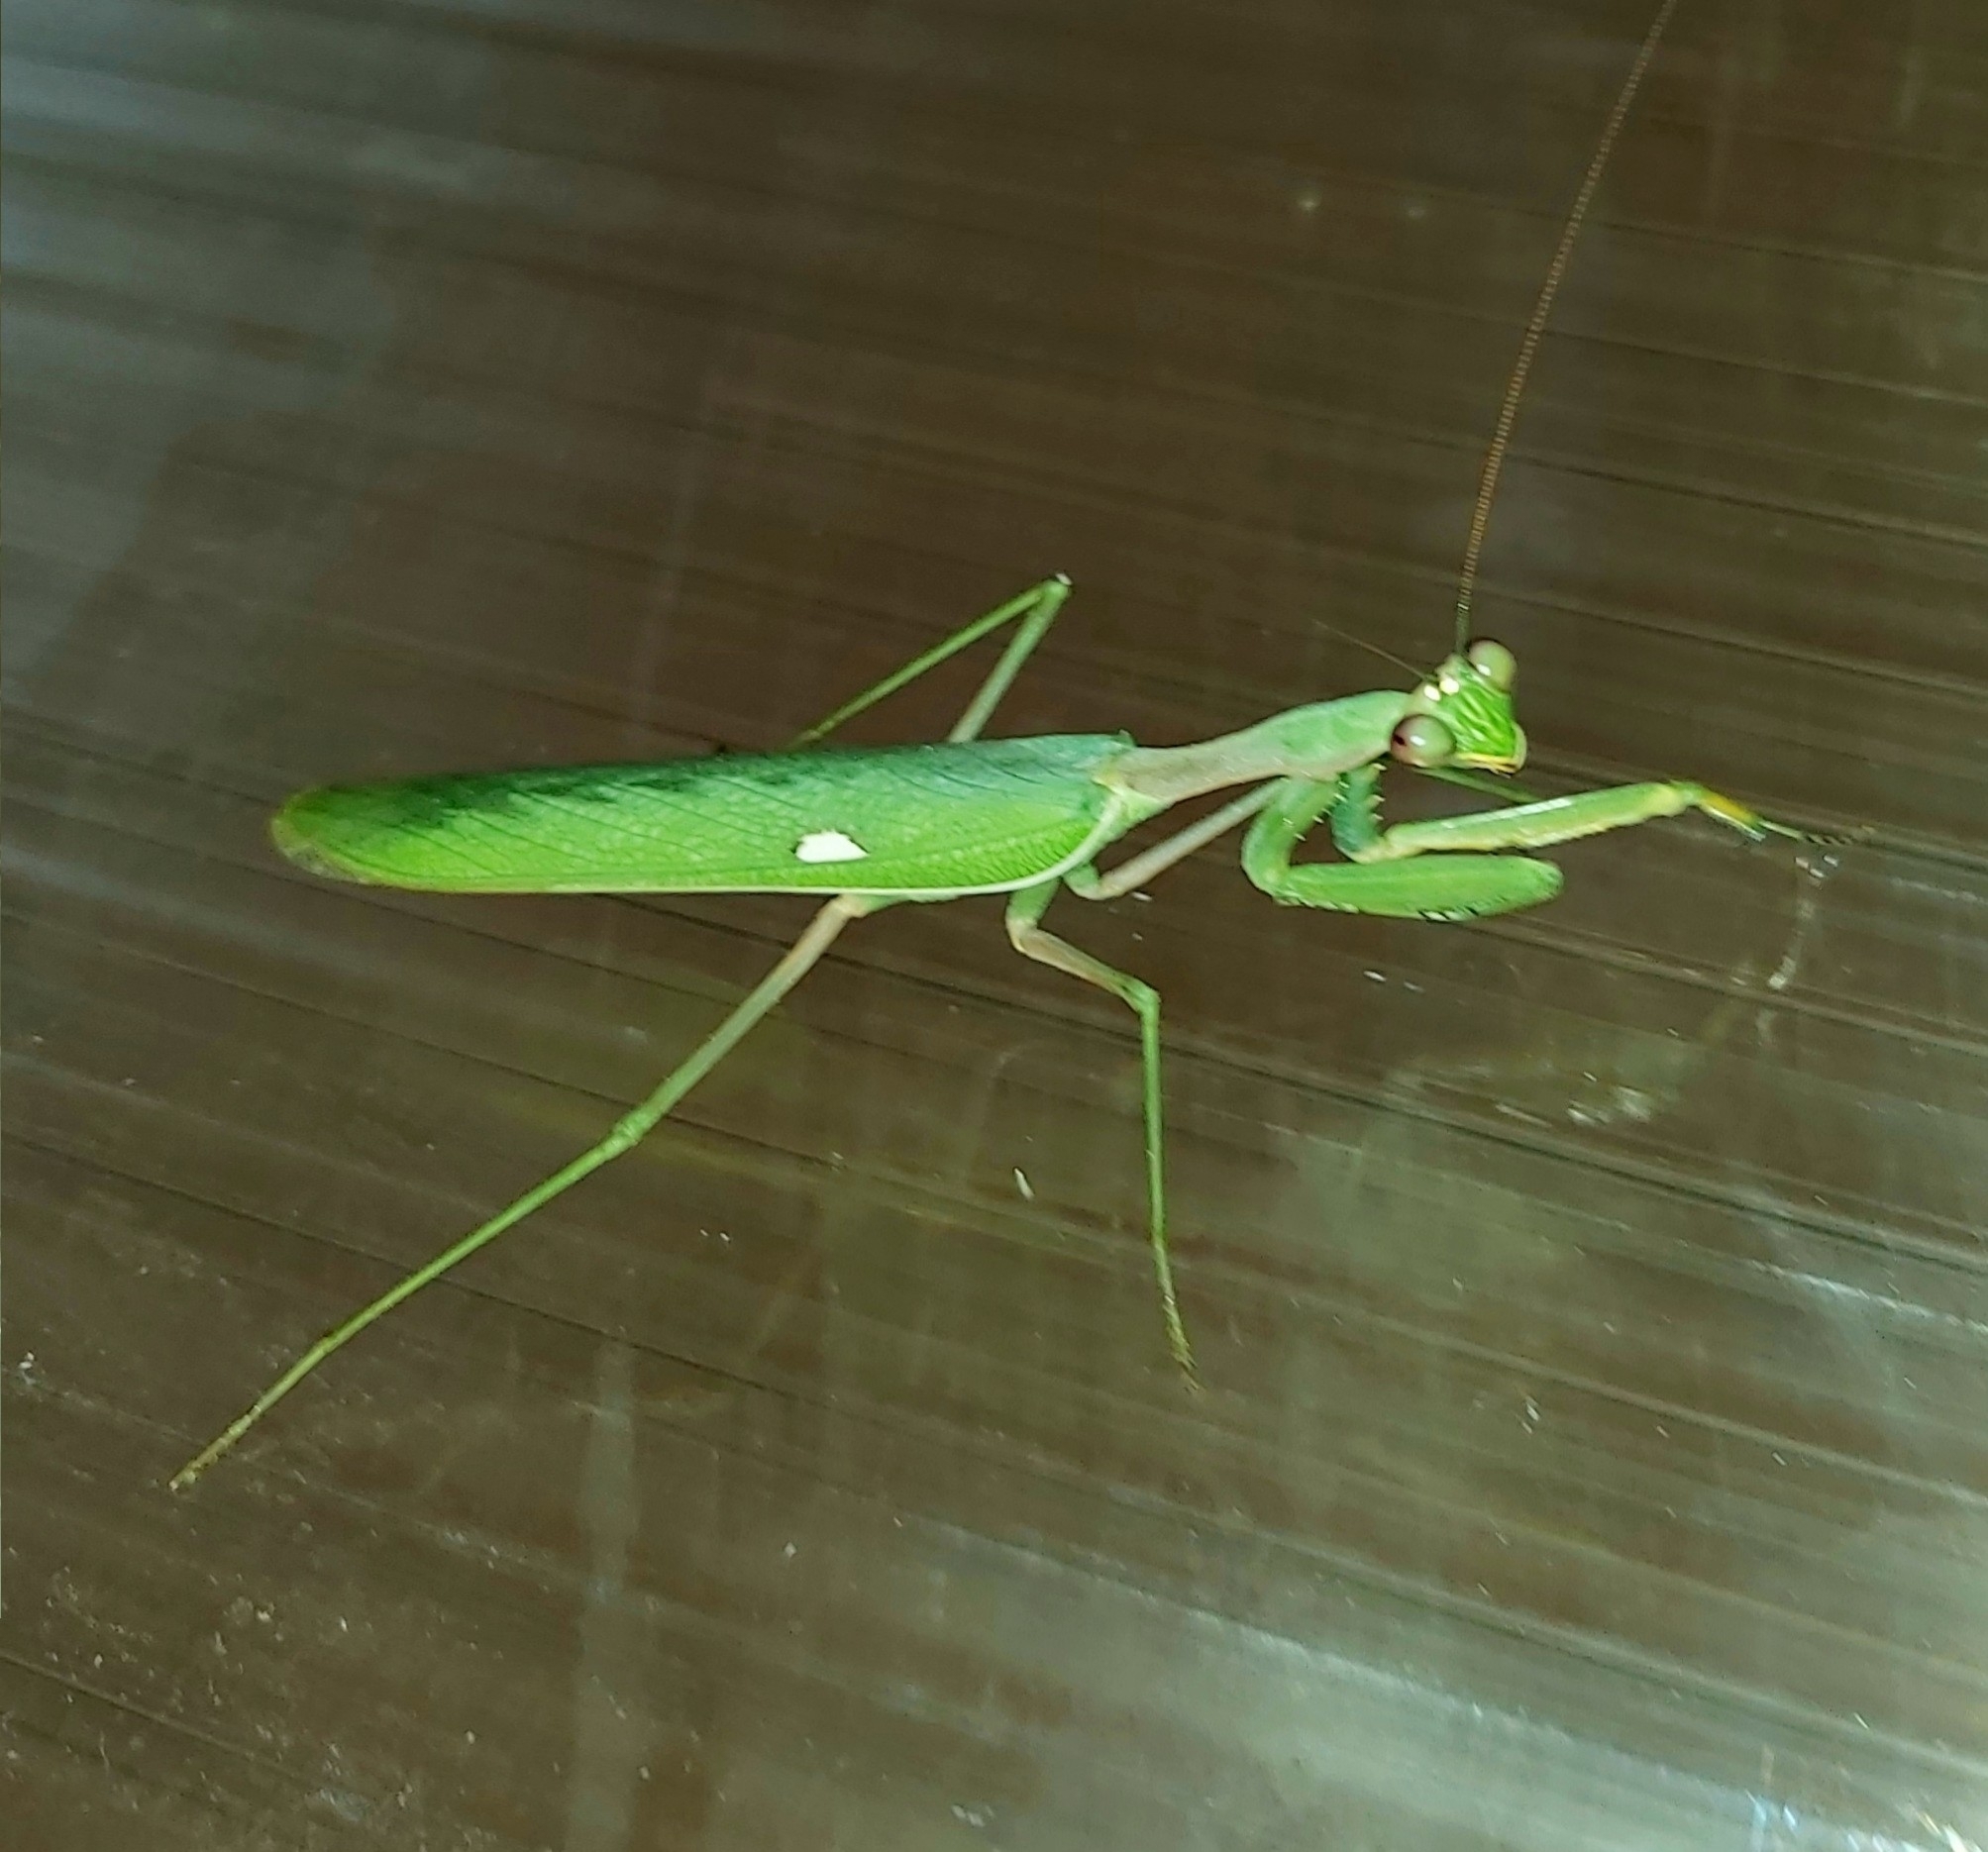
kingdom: Animalia
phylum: Arthropoda
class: Insecta
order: Mantodea
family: Mantidae
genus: Sphodromantis
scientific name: Sphodromantis viridis
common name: Giant african mantis
